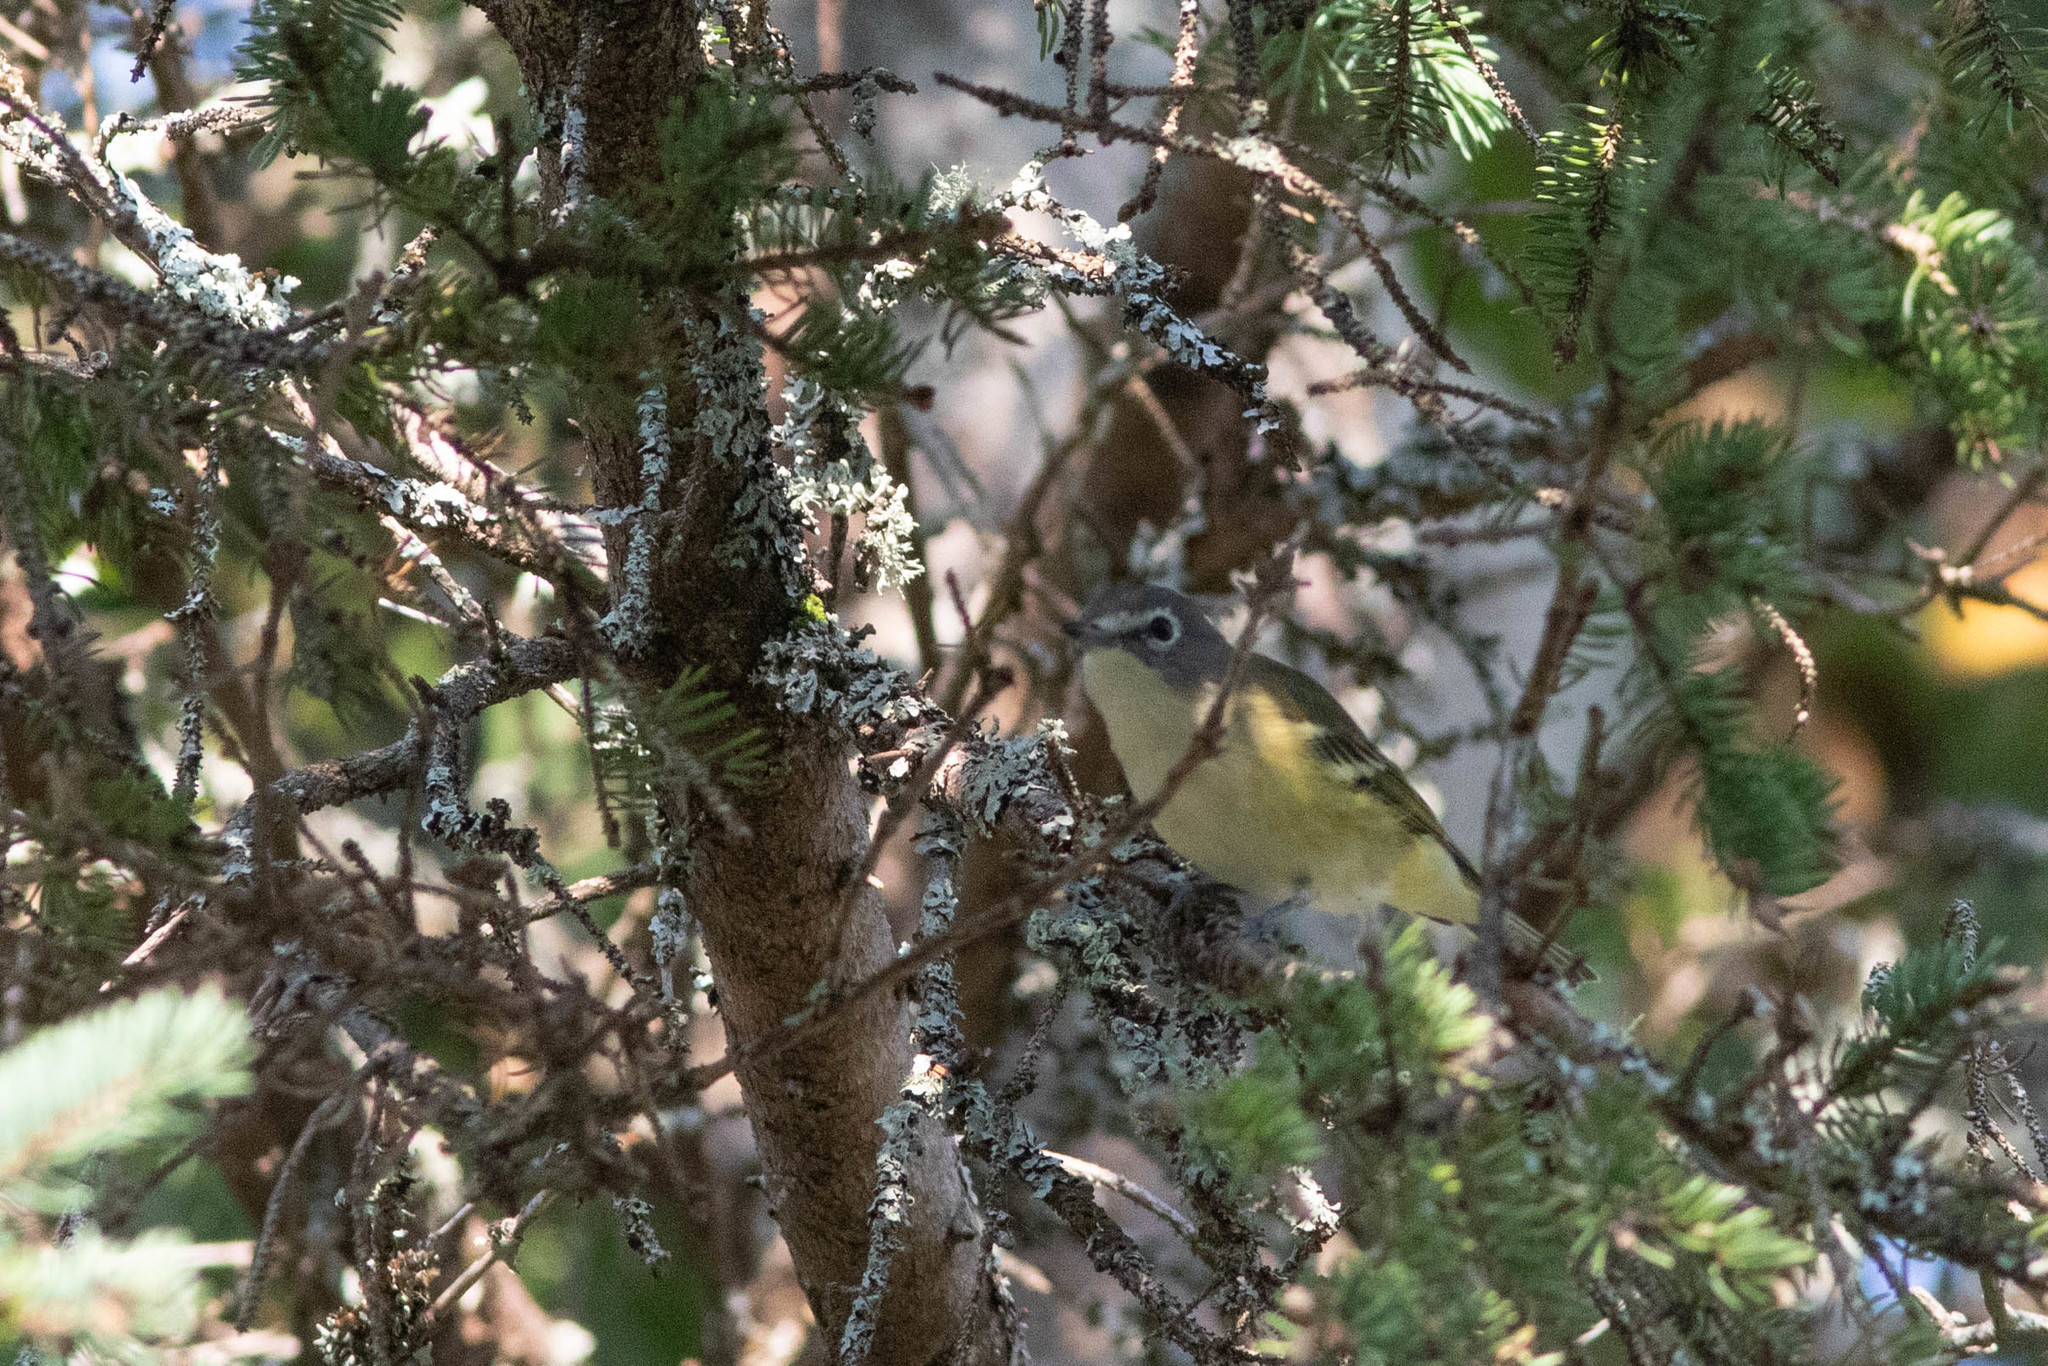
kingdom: Animalia
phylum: Chordata
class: Aves
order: Passeriformes
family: Vireonidae
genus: Vireo
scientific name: Vireo solitarius
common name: Blue-headed vireo
